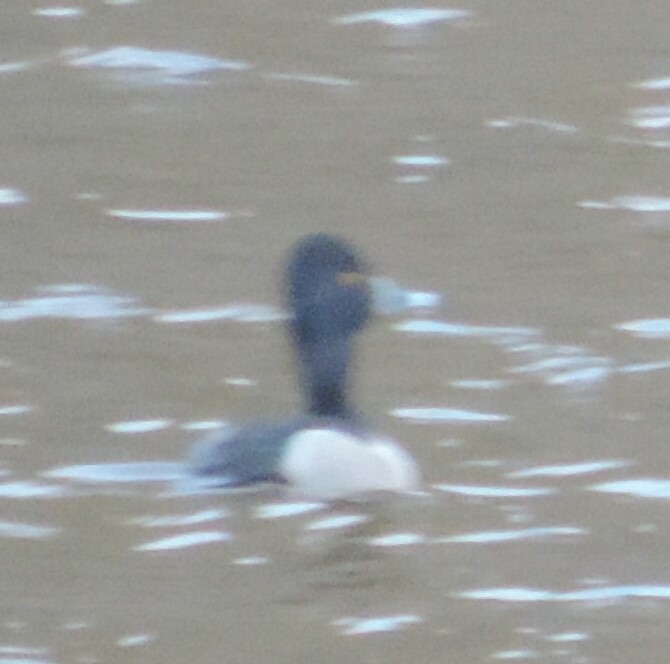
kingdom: Animalia
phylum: Chordata
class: Aves
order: Anseriformes
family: Anatidae
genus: Aythya
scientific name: Aythya collaris
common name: Ring-necked duck
